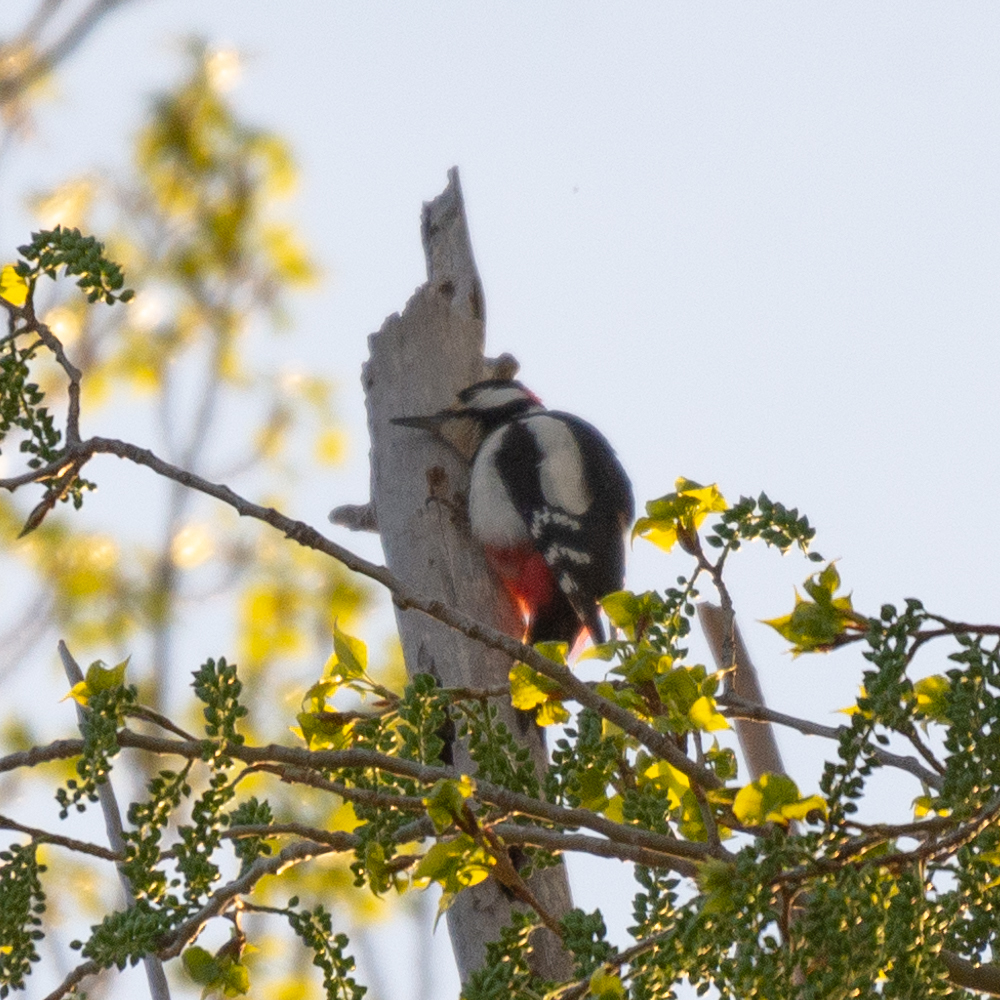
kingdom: Animalia
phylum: Chordata
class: Aves
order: Piciformes
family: Picidae
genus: Dendrocopos
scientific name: Dendrocopos major
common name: Great spotted woodpecker
